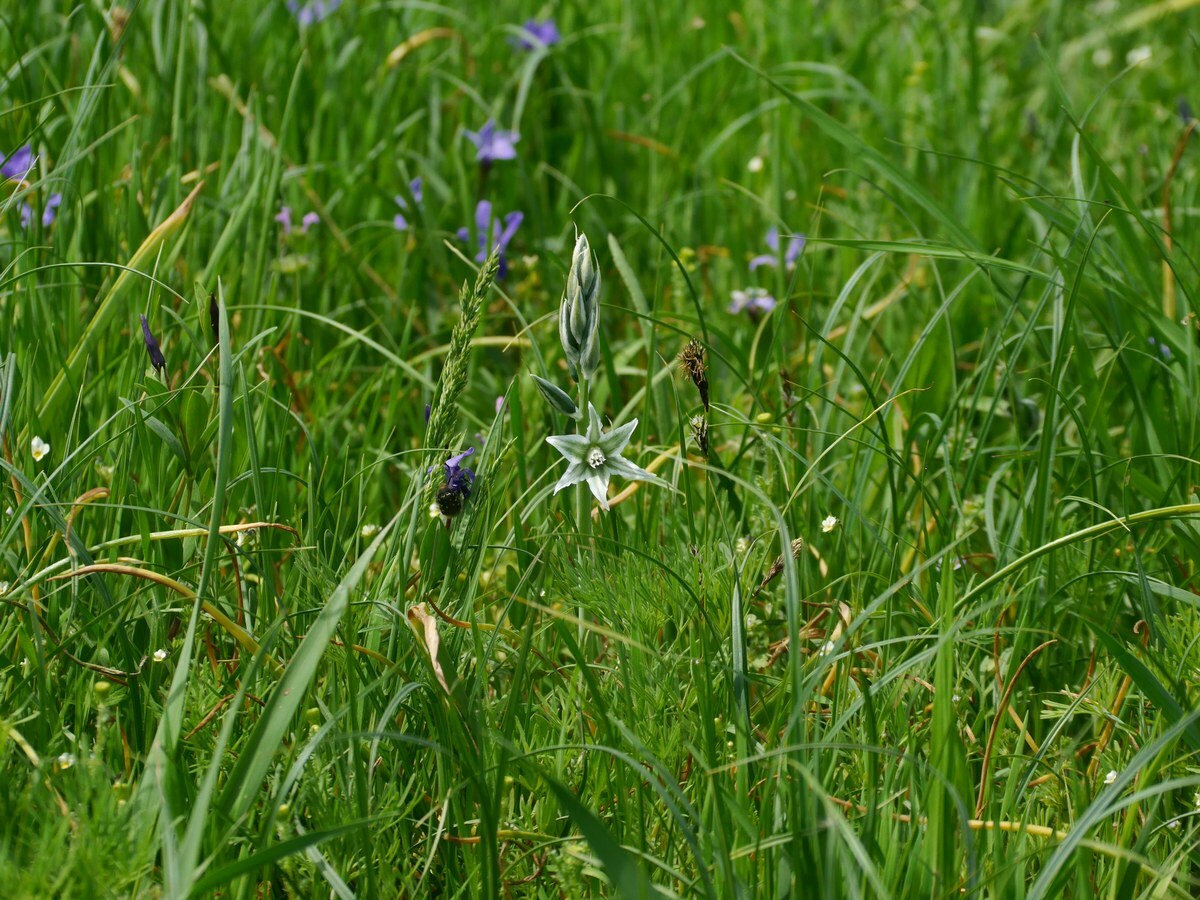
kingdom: Plantae
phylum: Tracheophyta
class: Liliopsida
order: Asparagales
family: Asparagaceae
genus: Ornithogalum
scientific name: Ornithogalum boucheanum
